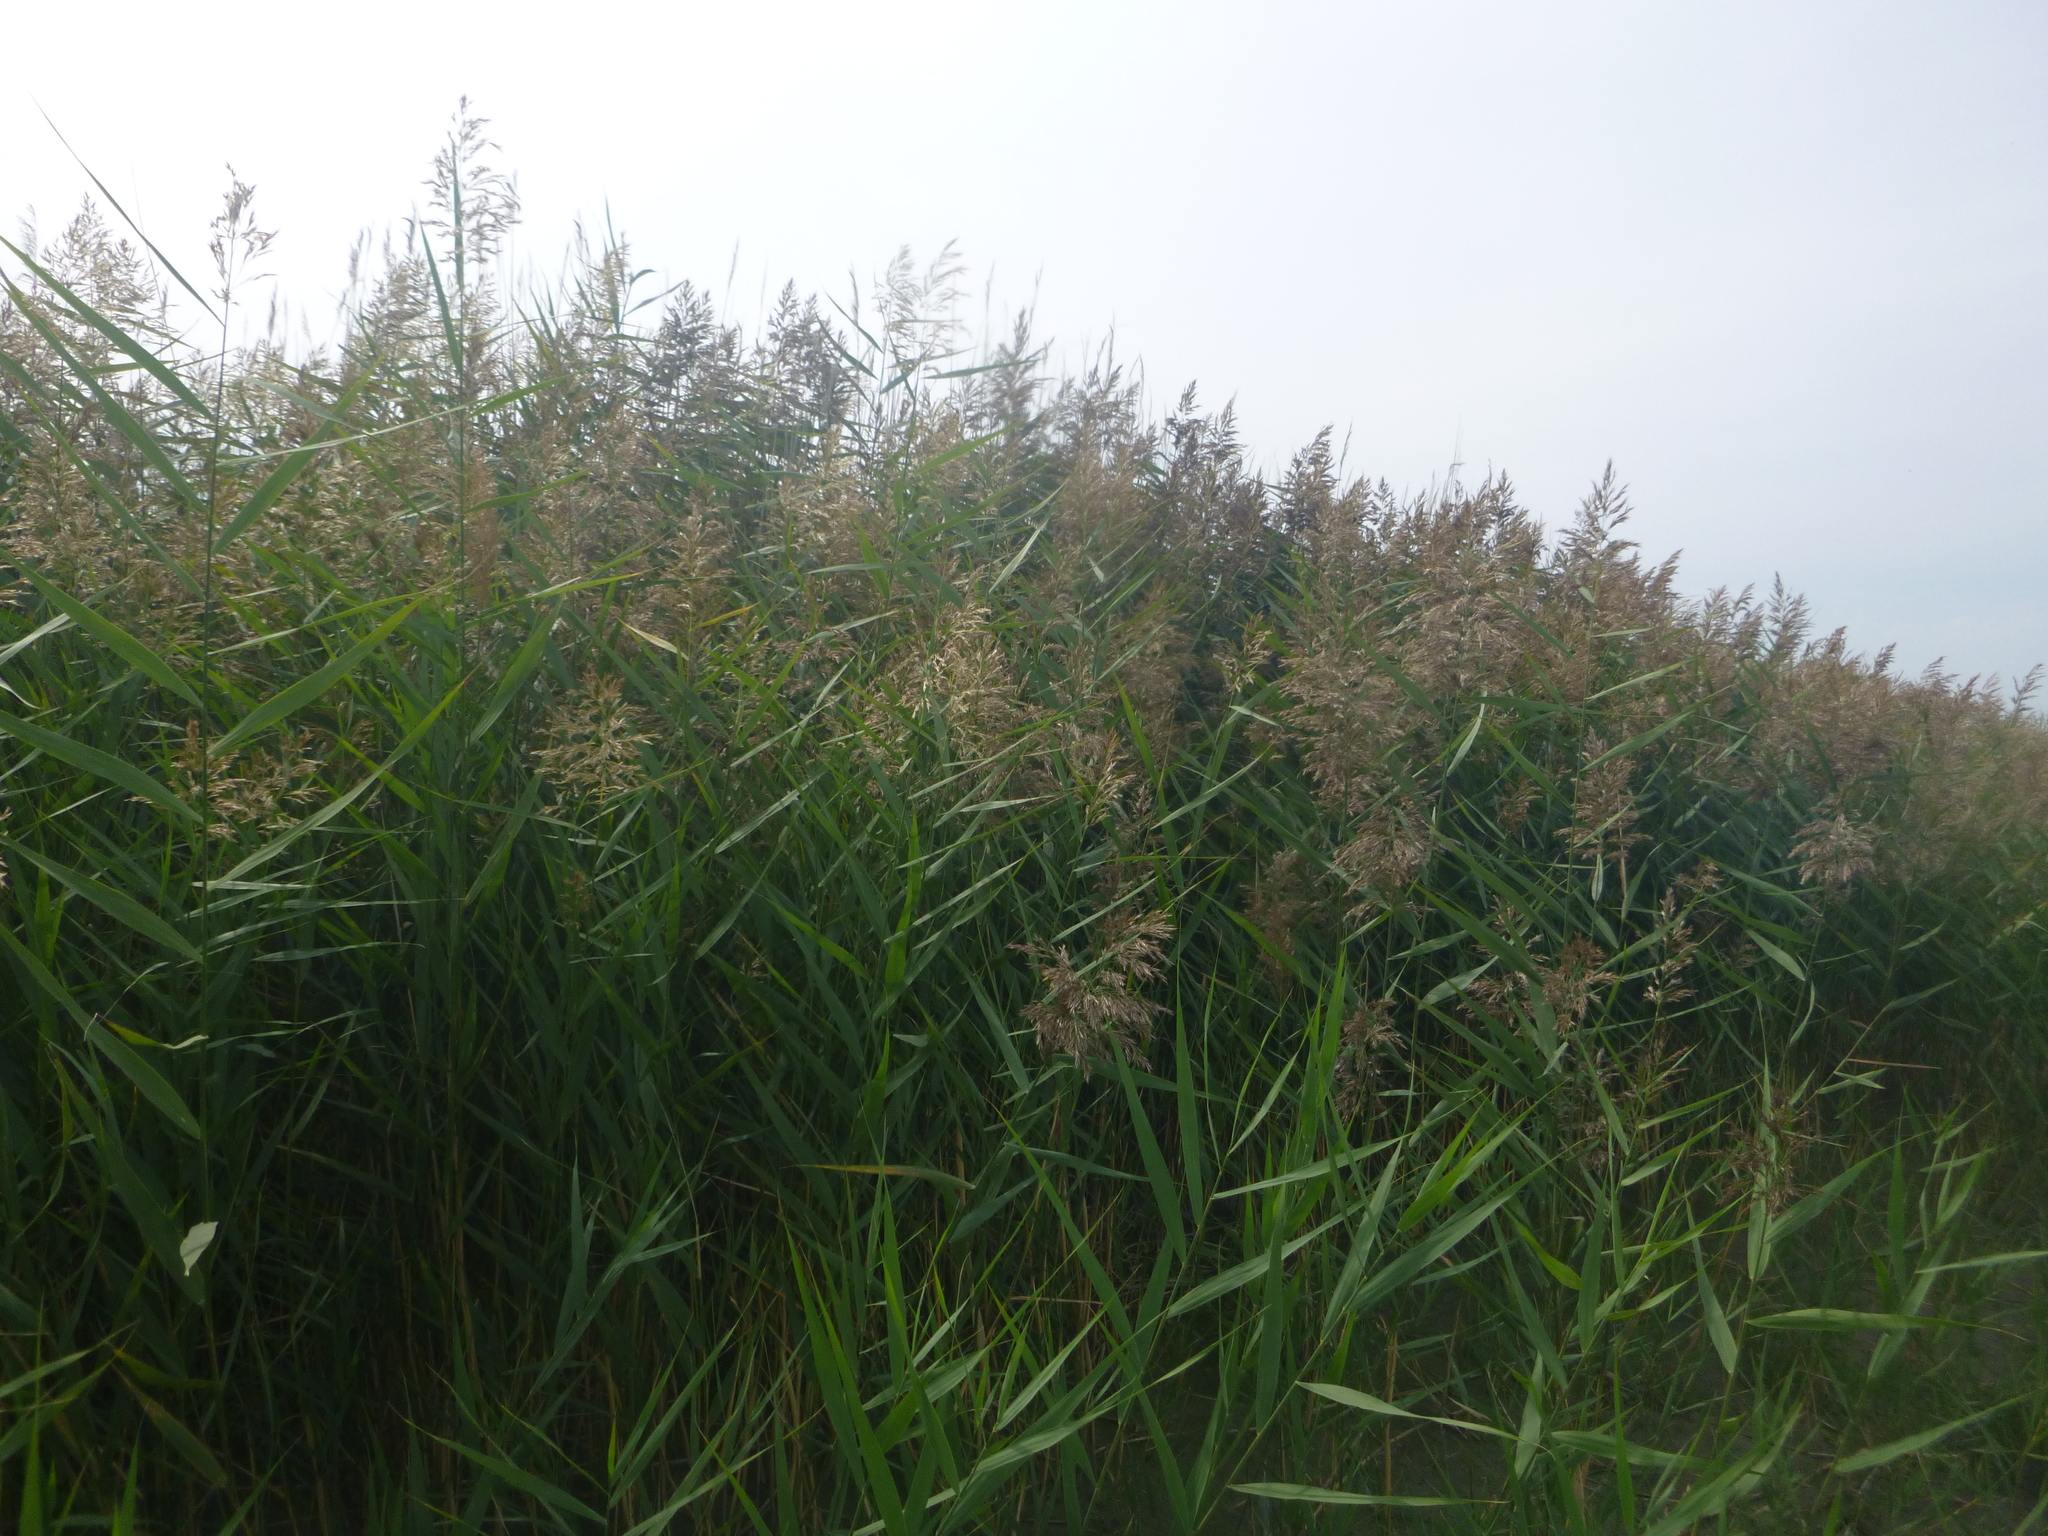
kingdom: Plantae
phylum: Tracheophyta
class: Liliopsida
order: Poales
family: Poaceae
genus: Phragmites
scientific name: Phragmites australis
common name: Common reed
